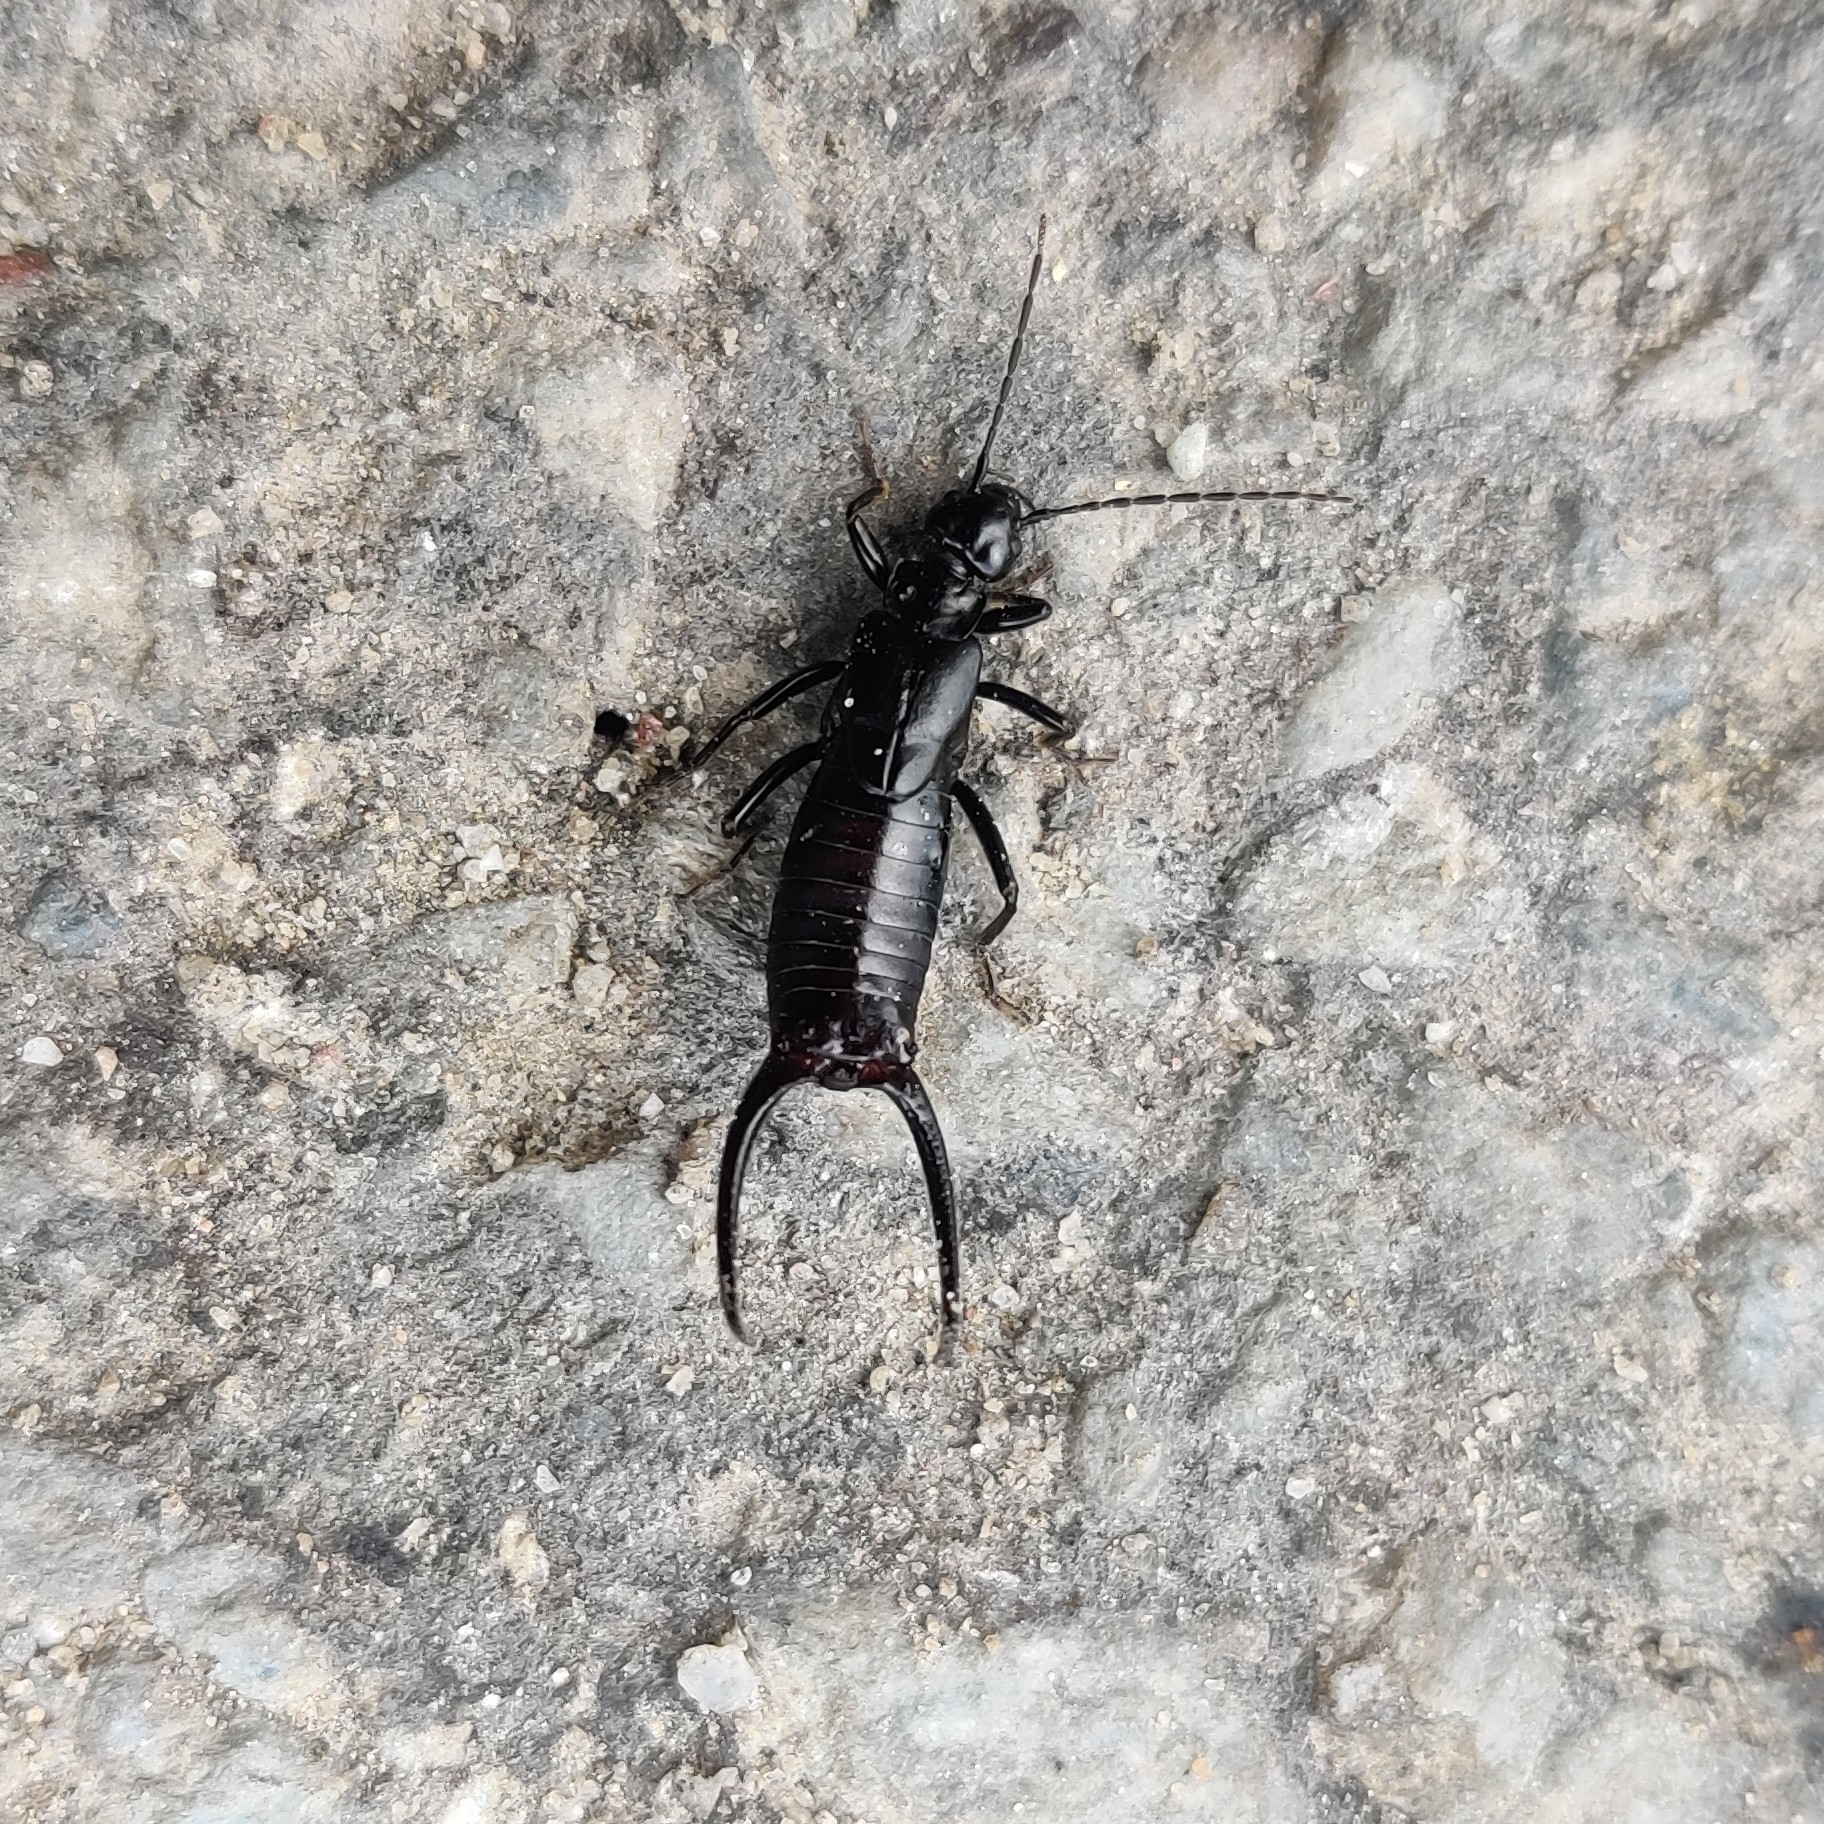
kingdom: Animalia
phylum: Arthropoda
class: Insecta
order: Dermaptera
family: Forficulidae
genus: Oreasiobia
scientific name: Oreasiobia stoliczkae
